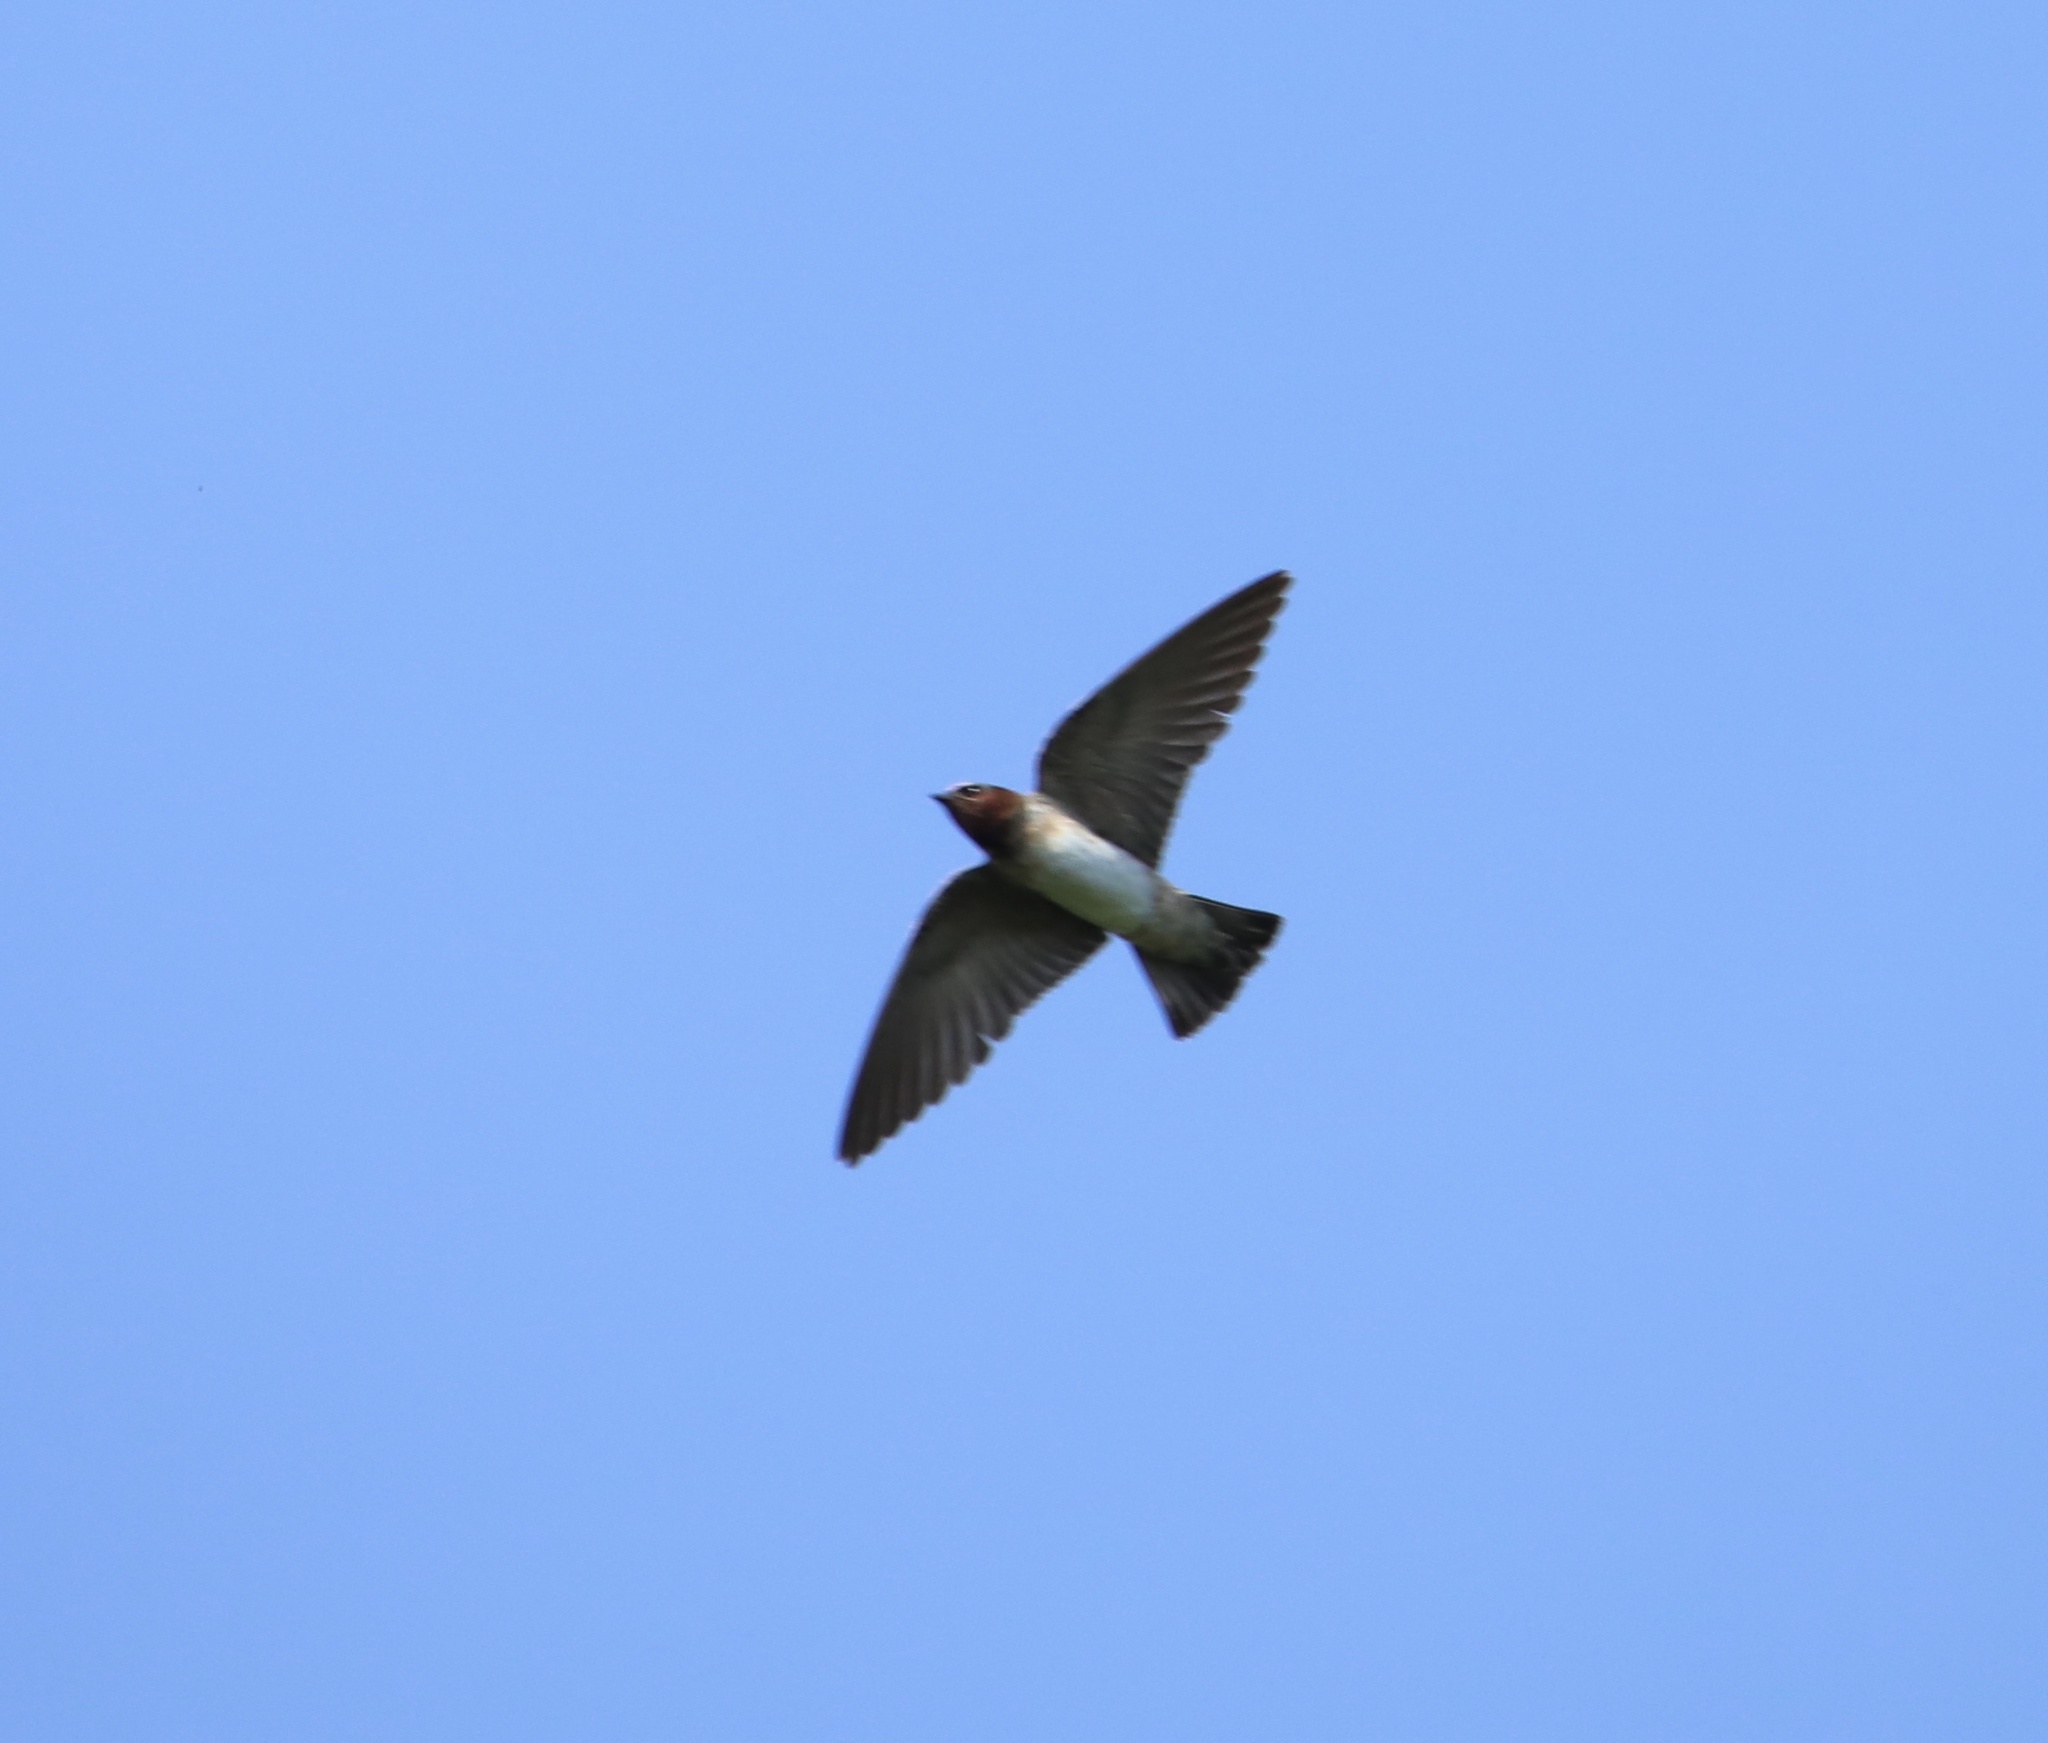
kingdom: Animalia
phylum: Chordata
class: Aves
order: Passeriformes
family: Hirundinidae
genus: Petrochelidon
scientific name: Petrochelidon pyrrhonota
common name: American cliff swallow
